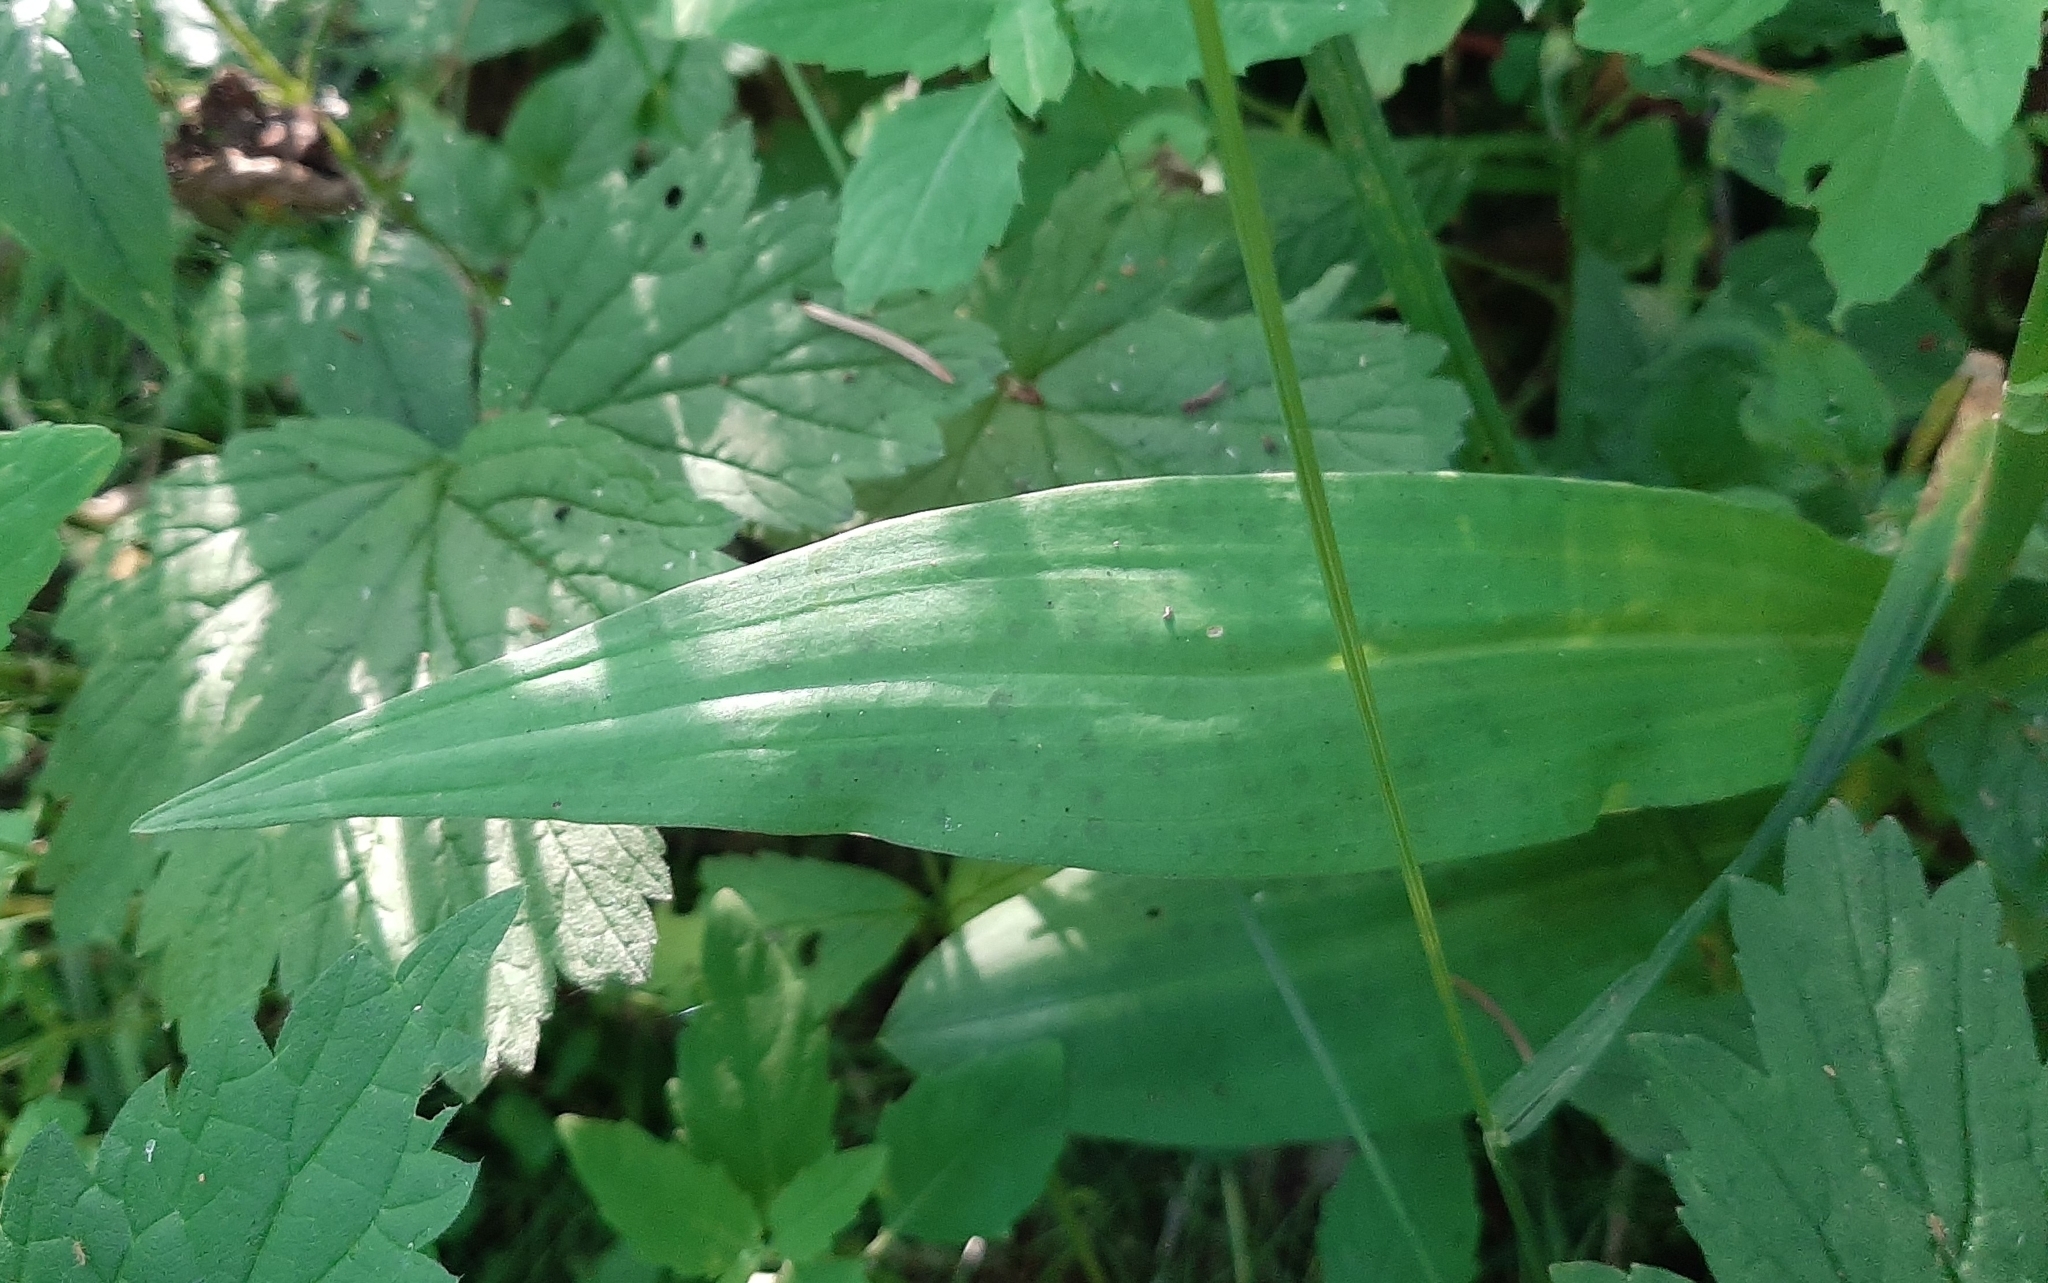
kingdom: Plantae
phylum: Tracheophyta
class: Liliopsida
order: Asparagales
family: Orchidaceae
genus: Dactylorhiza
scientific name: Dactylorhiza maculata
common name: Heath spotted-orchid
